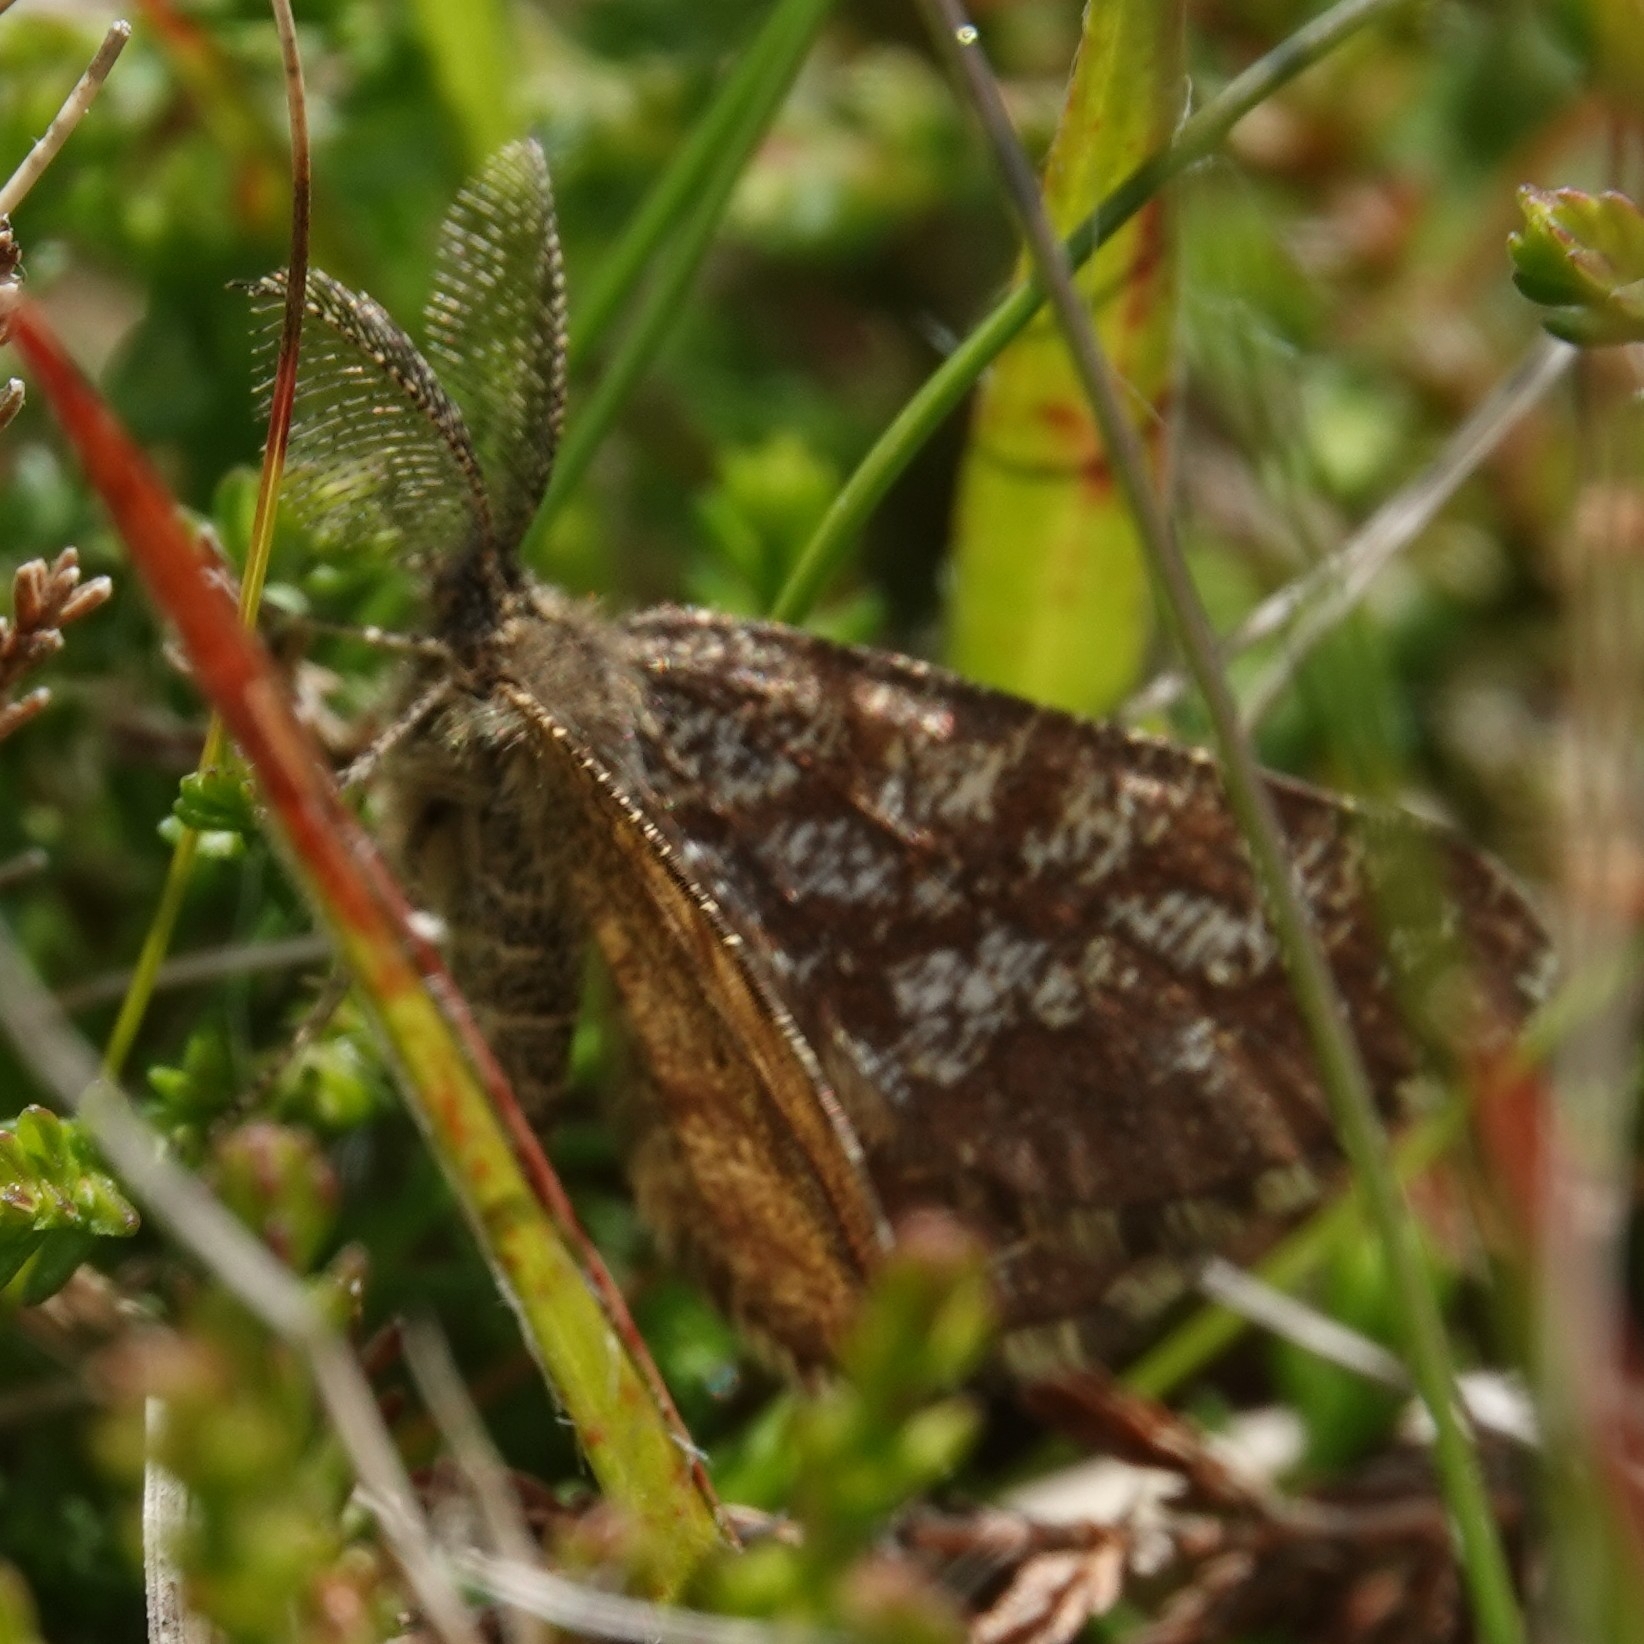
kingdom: Animalia
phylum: Arthropoda
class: Insecta
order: Lepidoptera
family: Geometridae
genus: Ematurga
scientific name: Ematurga atomaria
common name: Common heath
